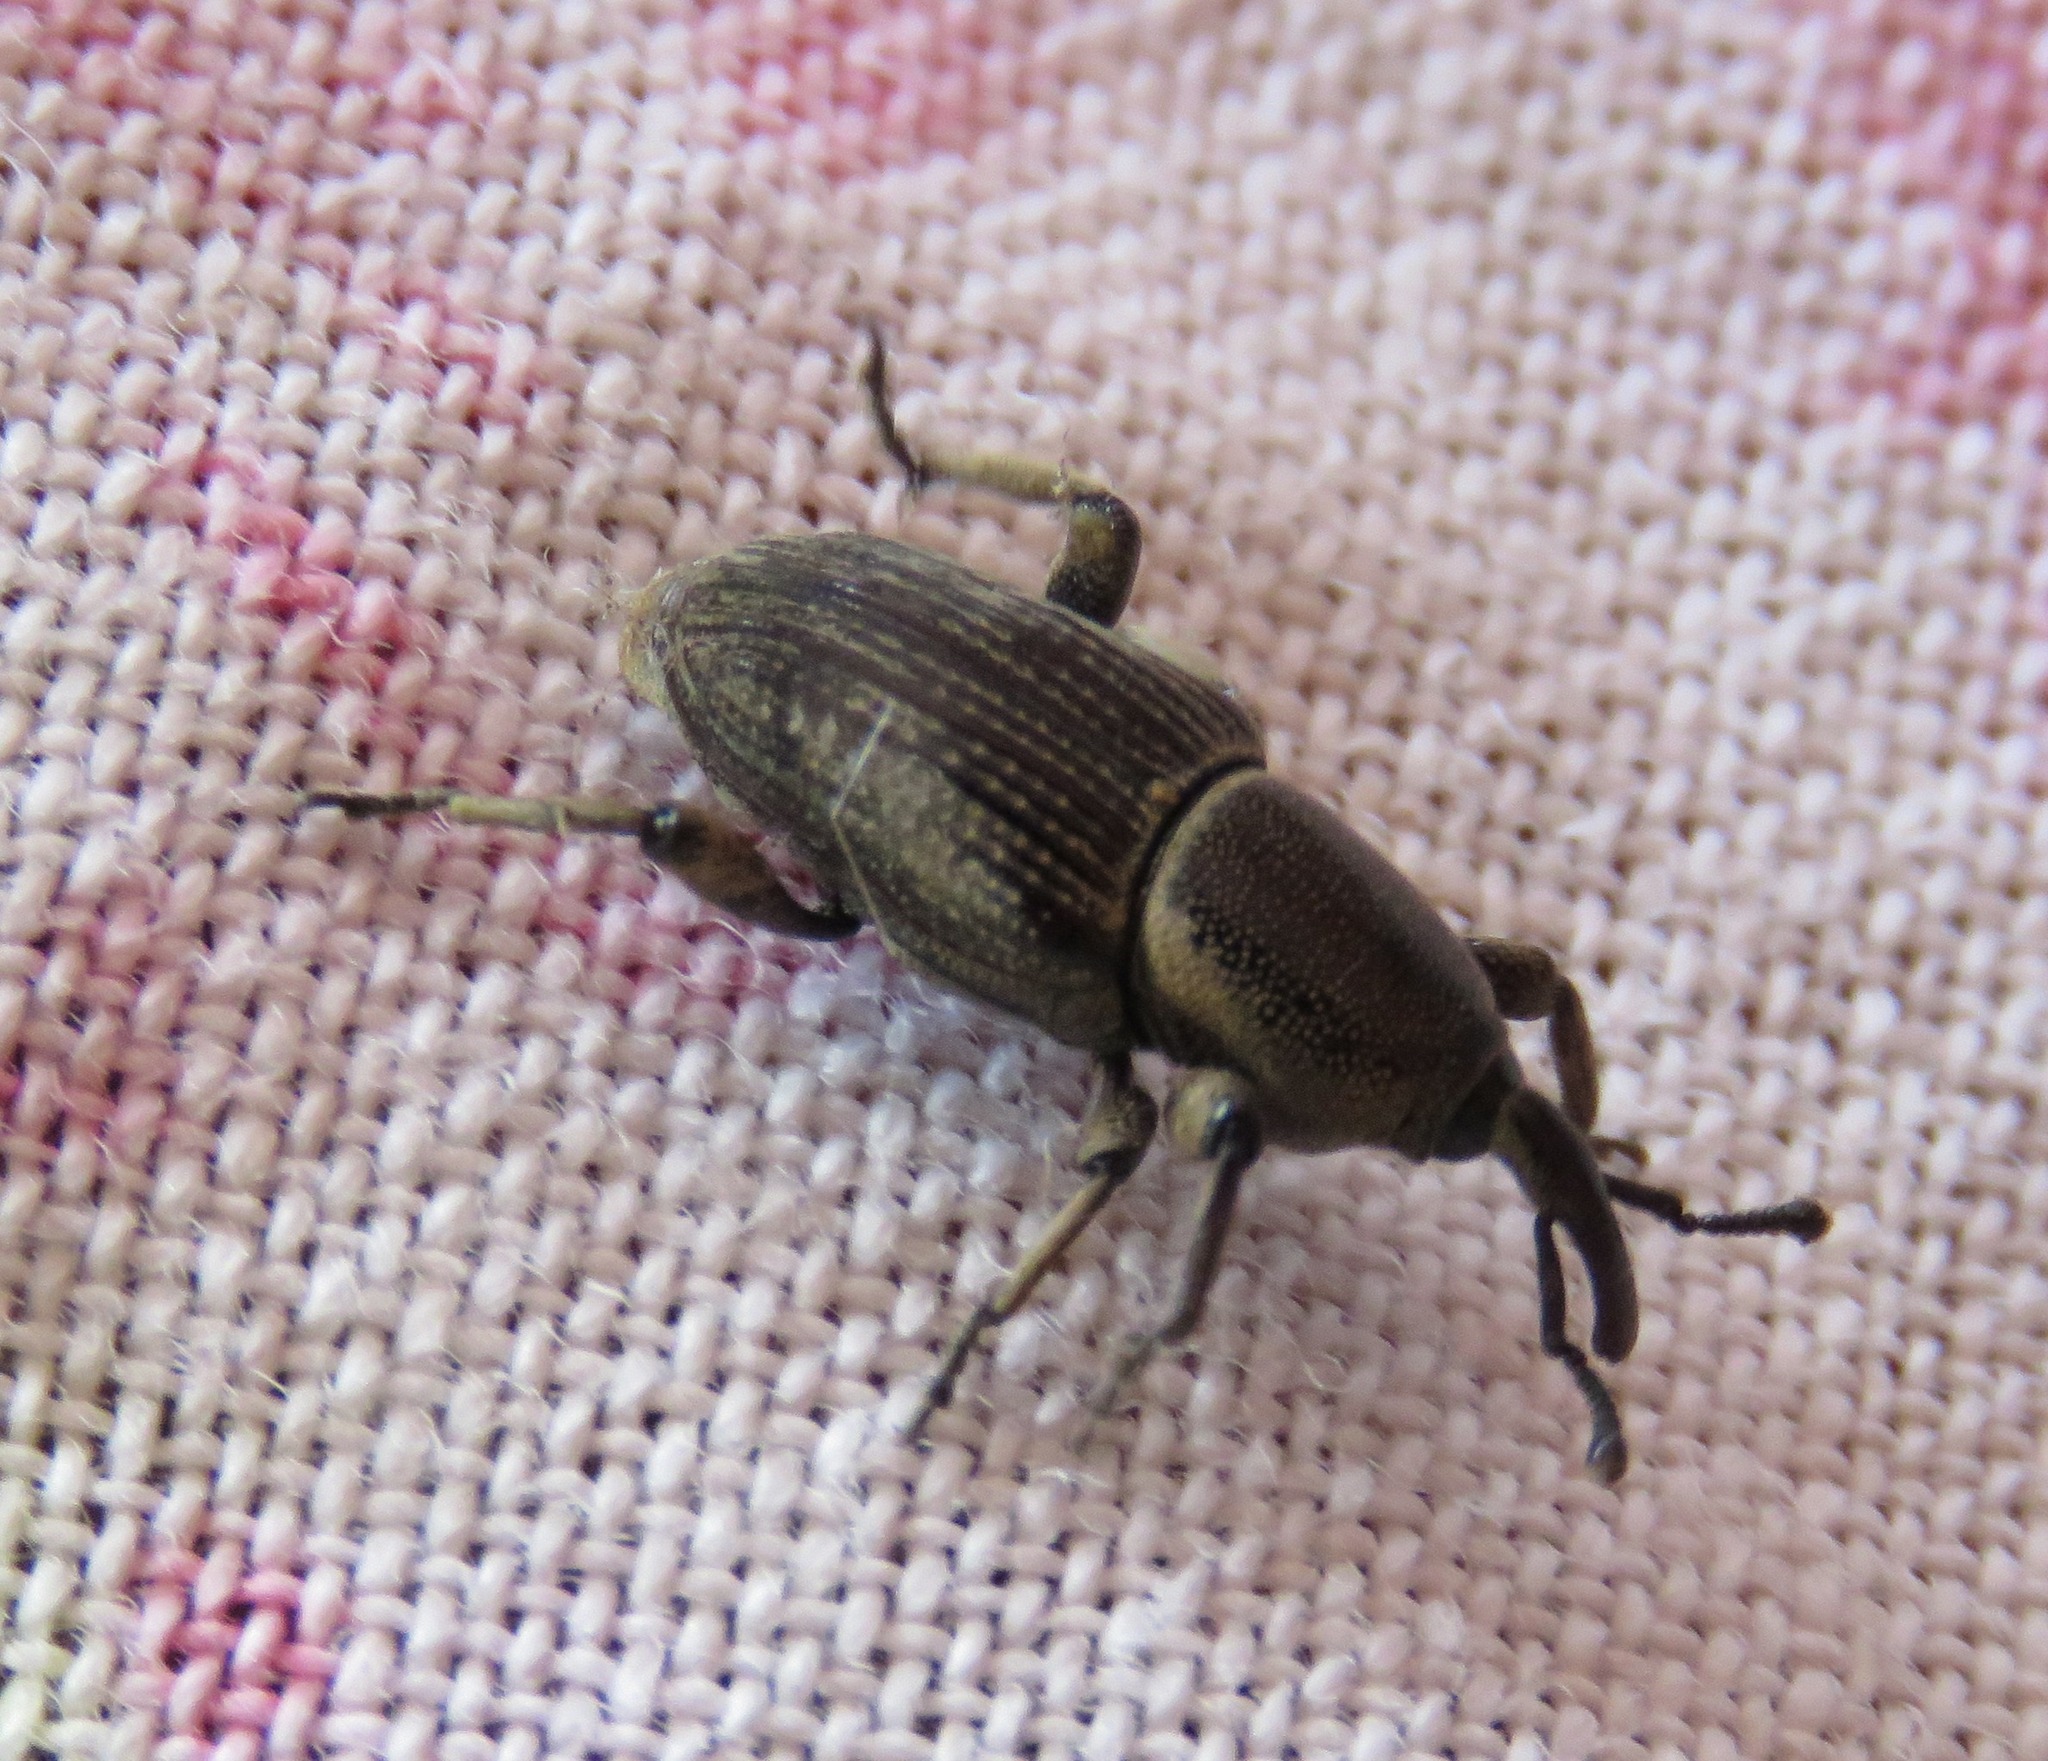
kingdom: Animalia
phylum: Arthropoda
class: Insecta
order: Coleoptera
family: Dryophthoridae
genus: Cosmopolites
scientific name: Cosmopolites sordidus
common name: Palm weevil
